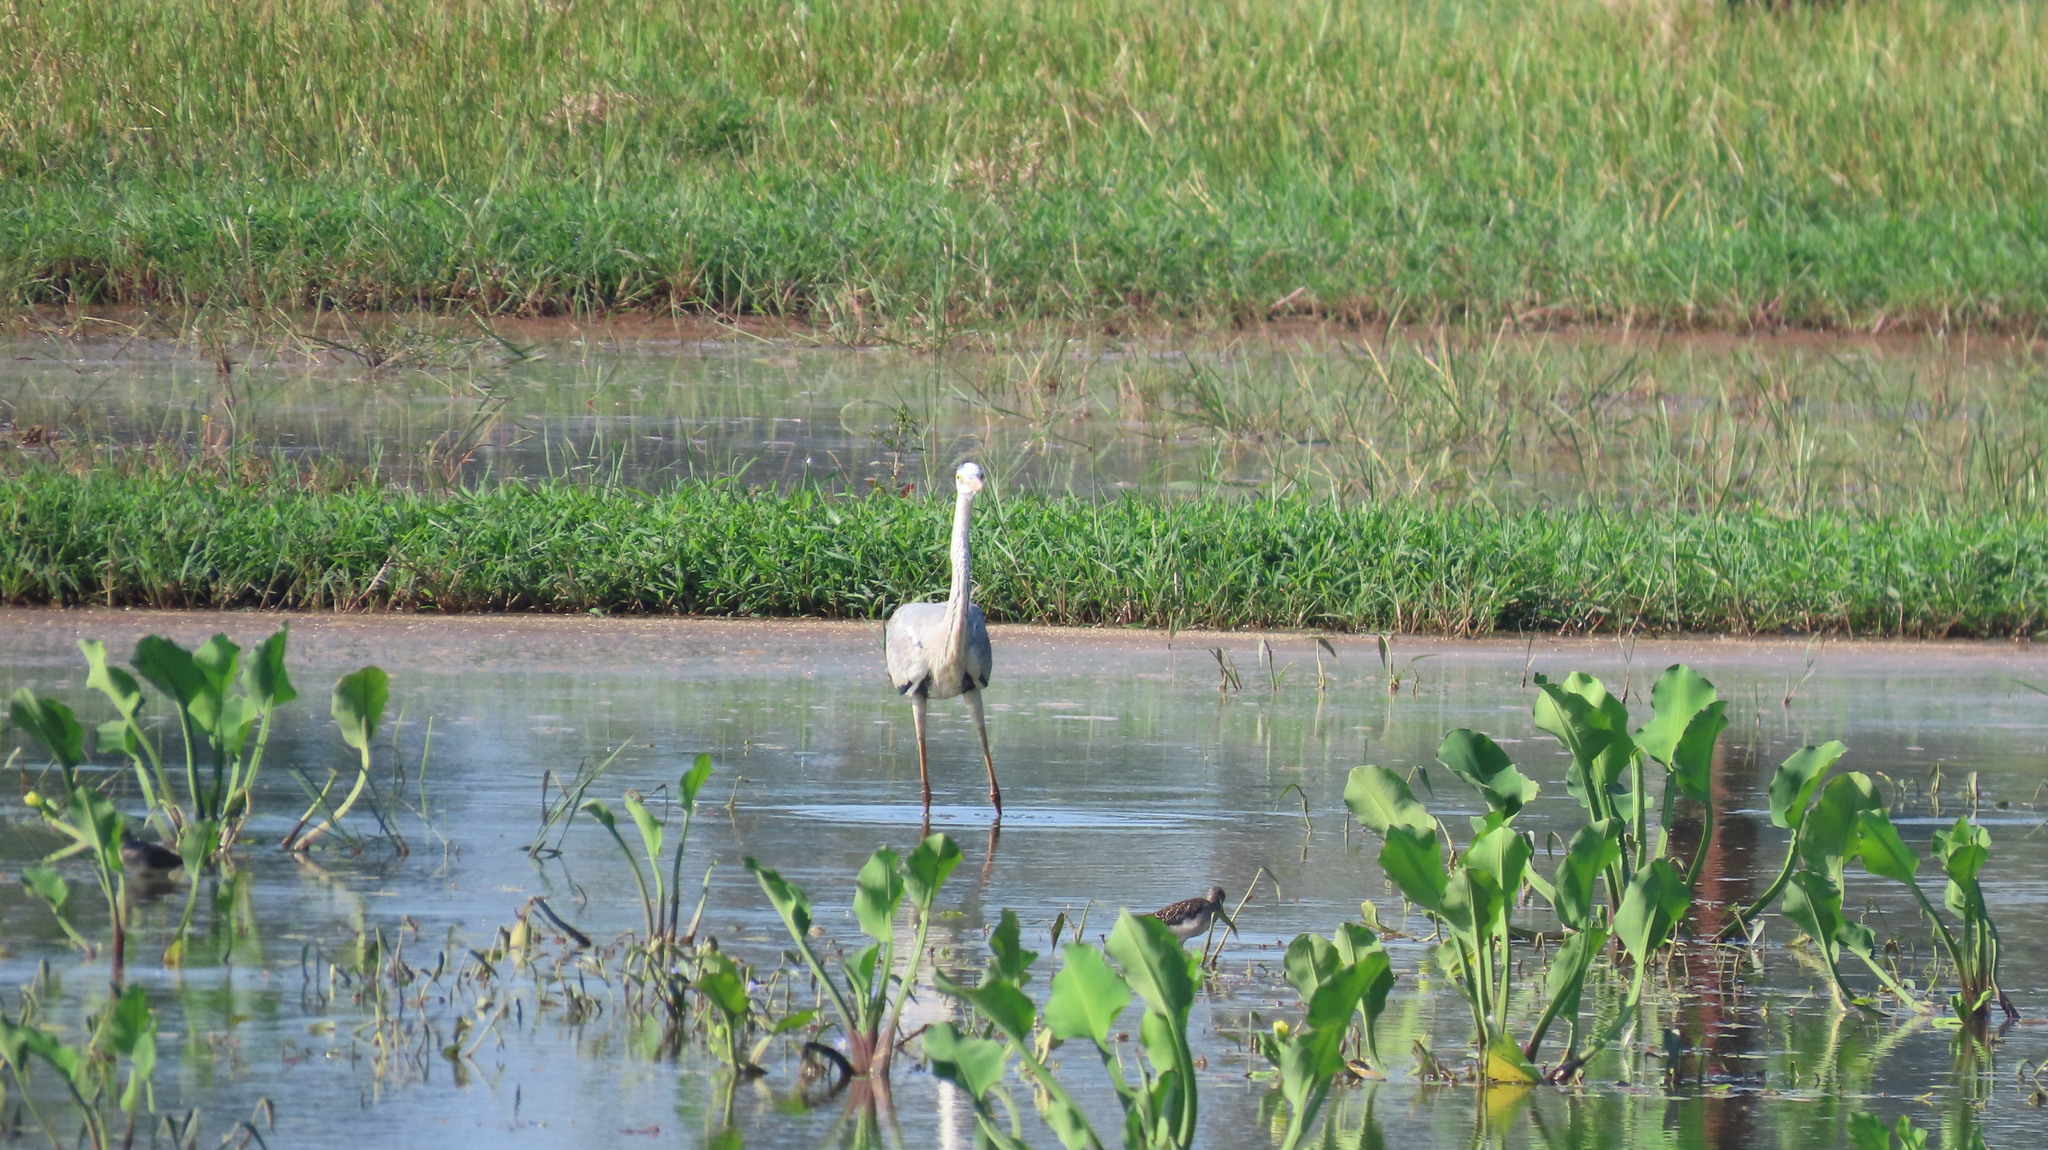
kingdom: Animalia
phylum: Chordata
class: Aves
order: Pelecaniformes
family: Ardeidae
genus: Ardea
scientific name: Ardea cinerea
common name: Grey heron
